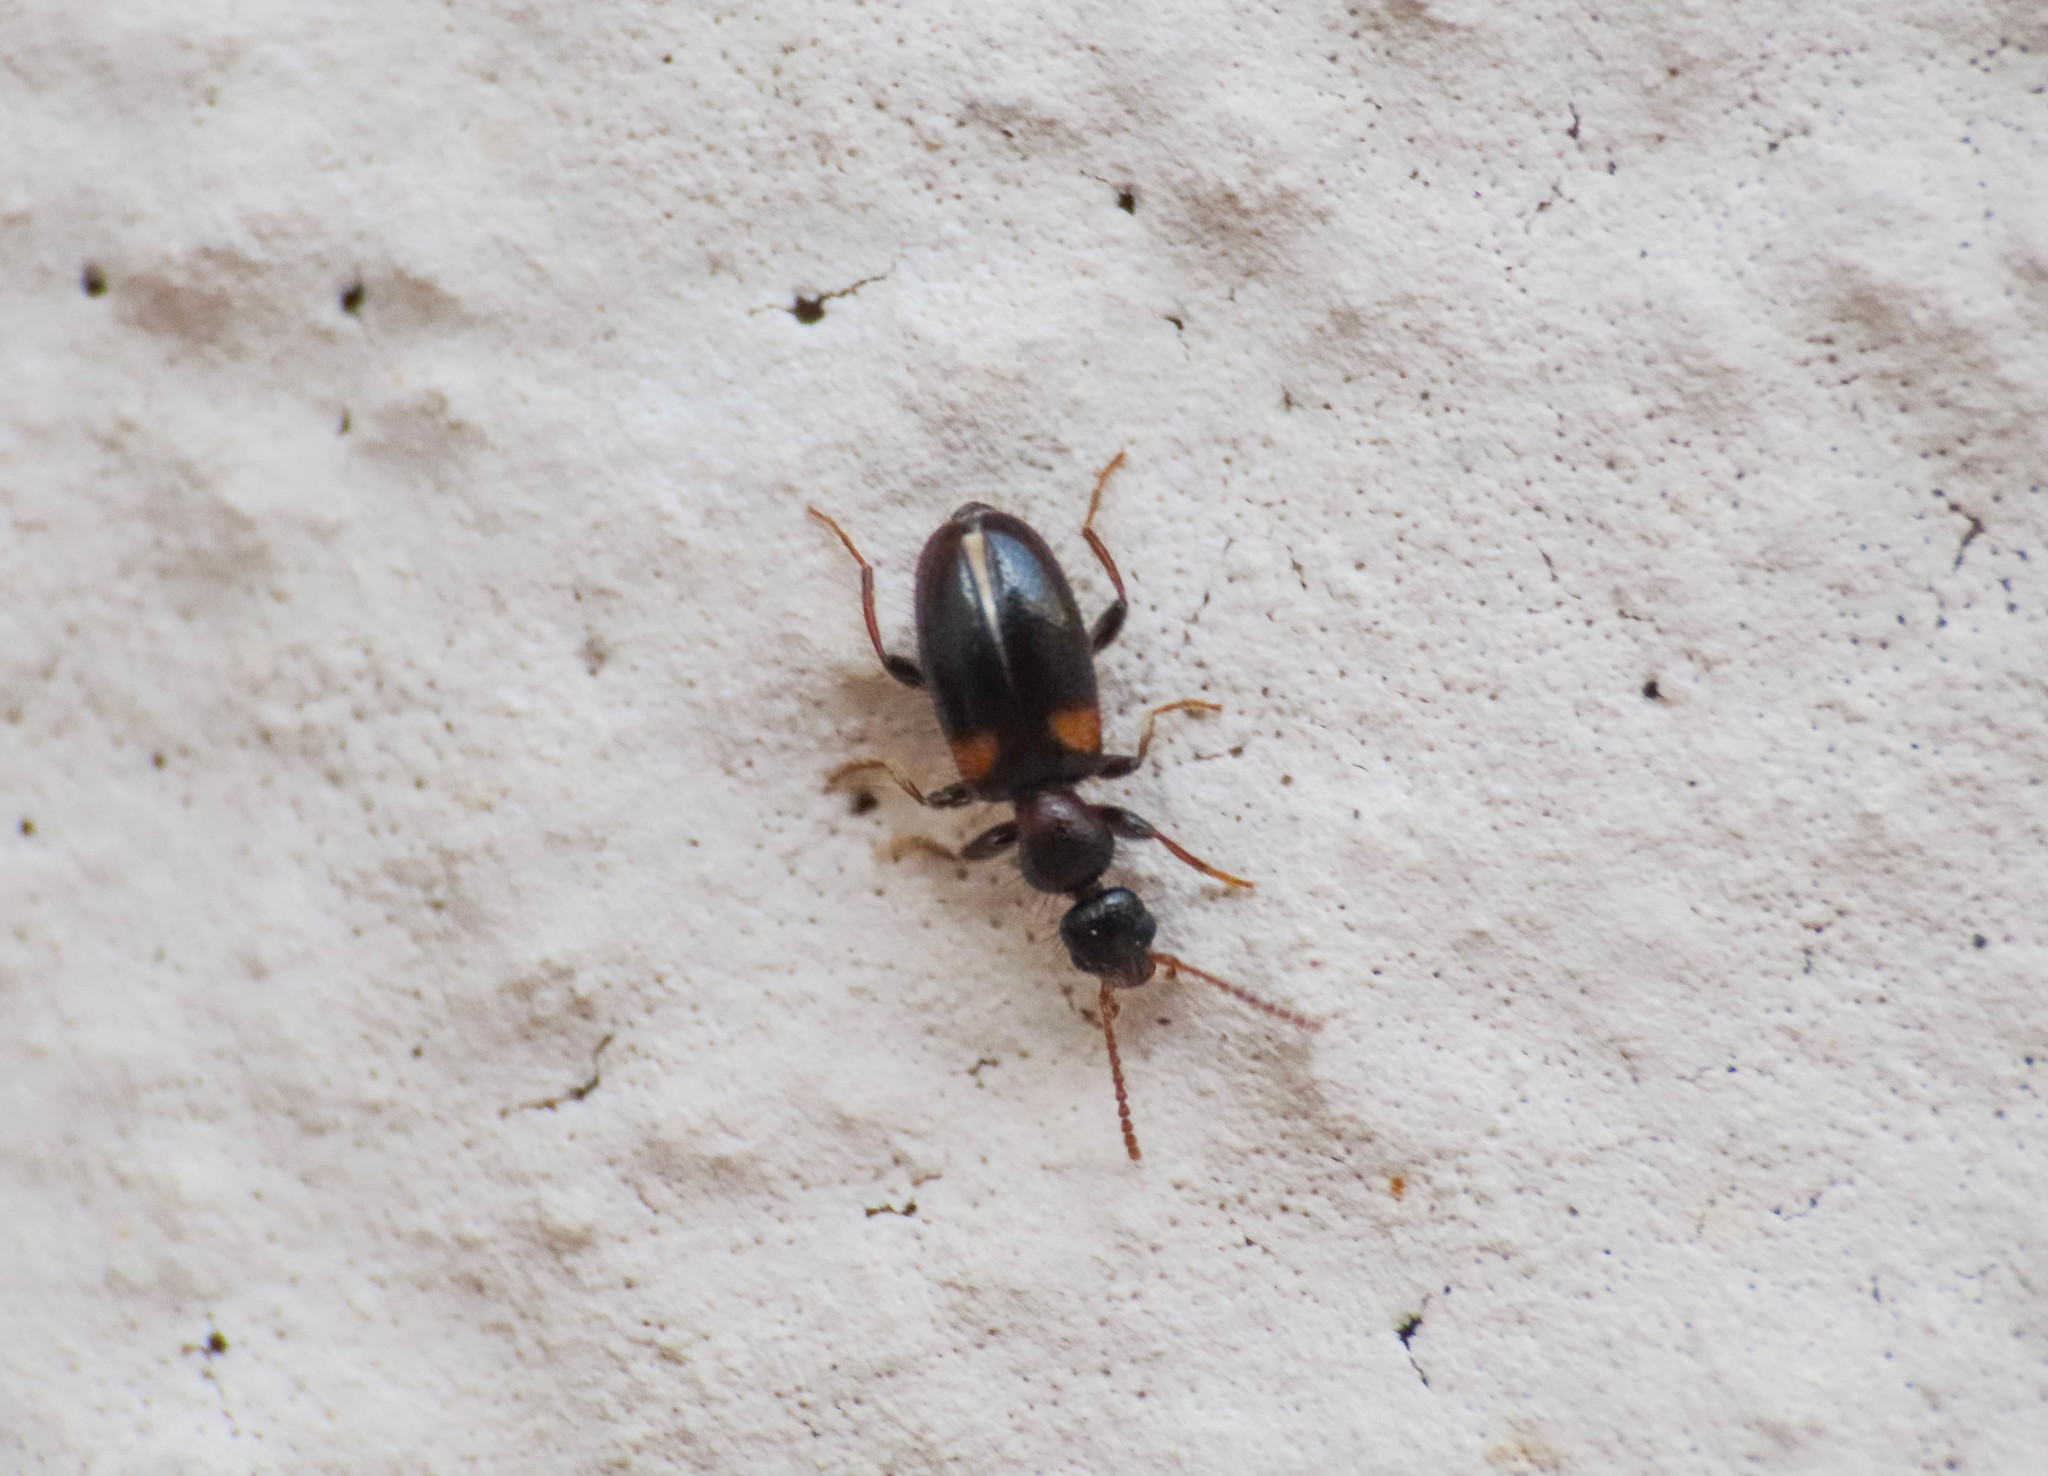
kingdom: Animalia
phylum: Arthropoda
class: Insecta
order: Coleoptera
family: Anthicidae
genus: Hirticollis
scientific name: Hirticollis hispidus
